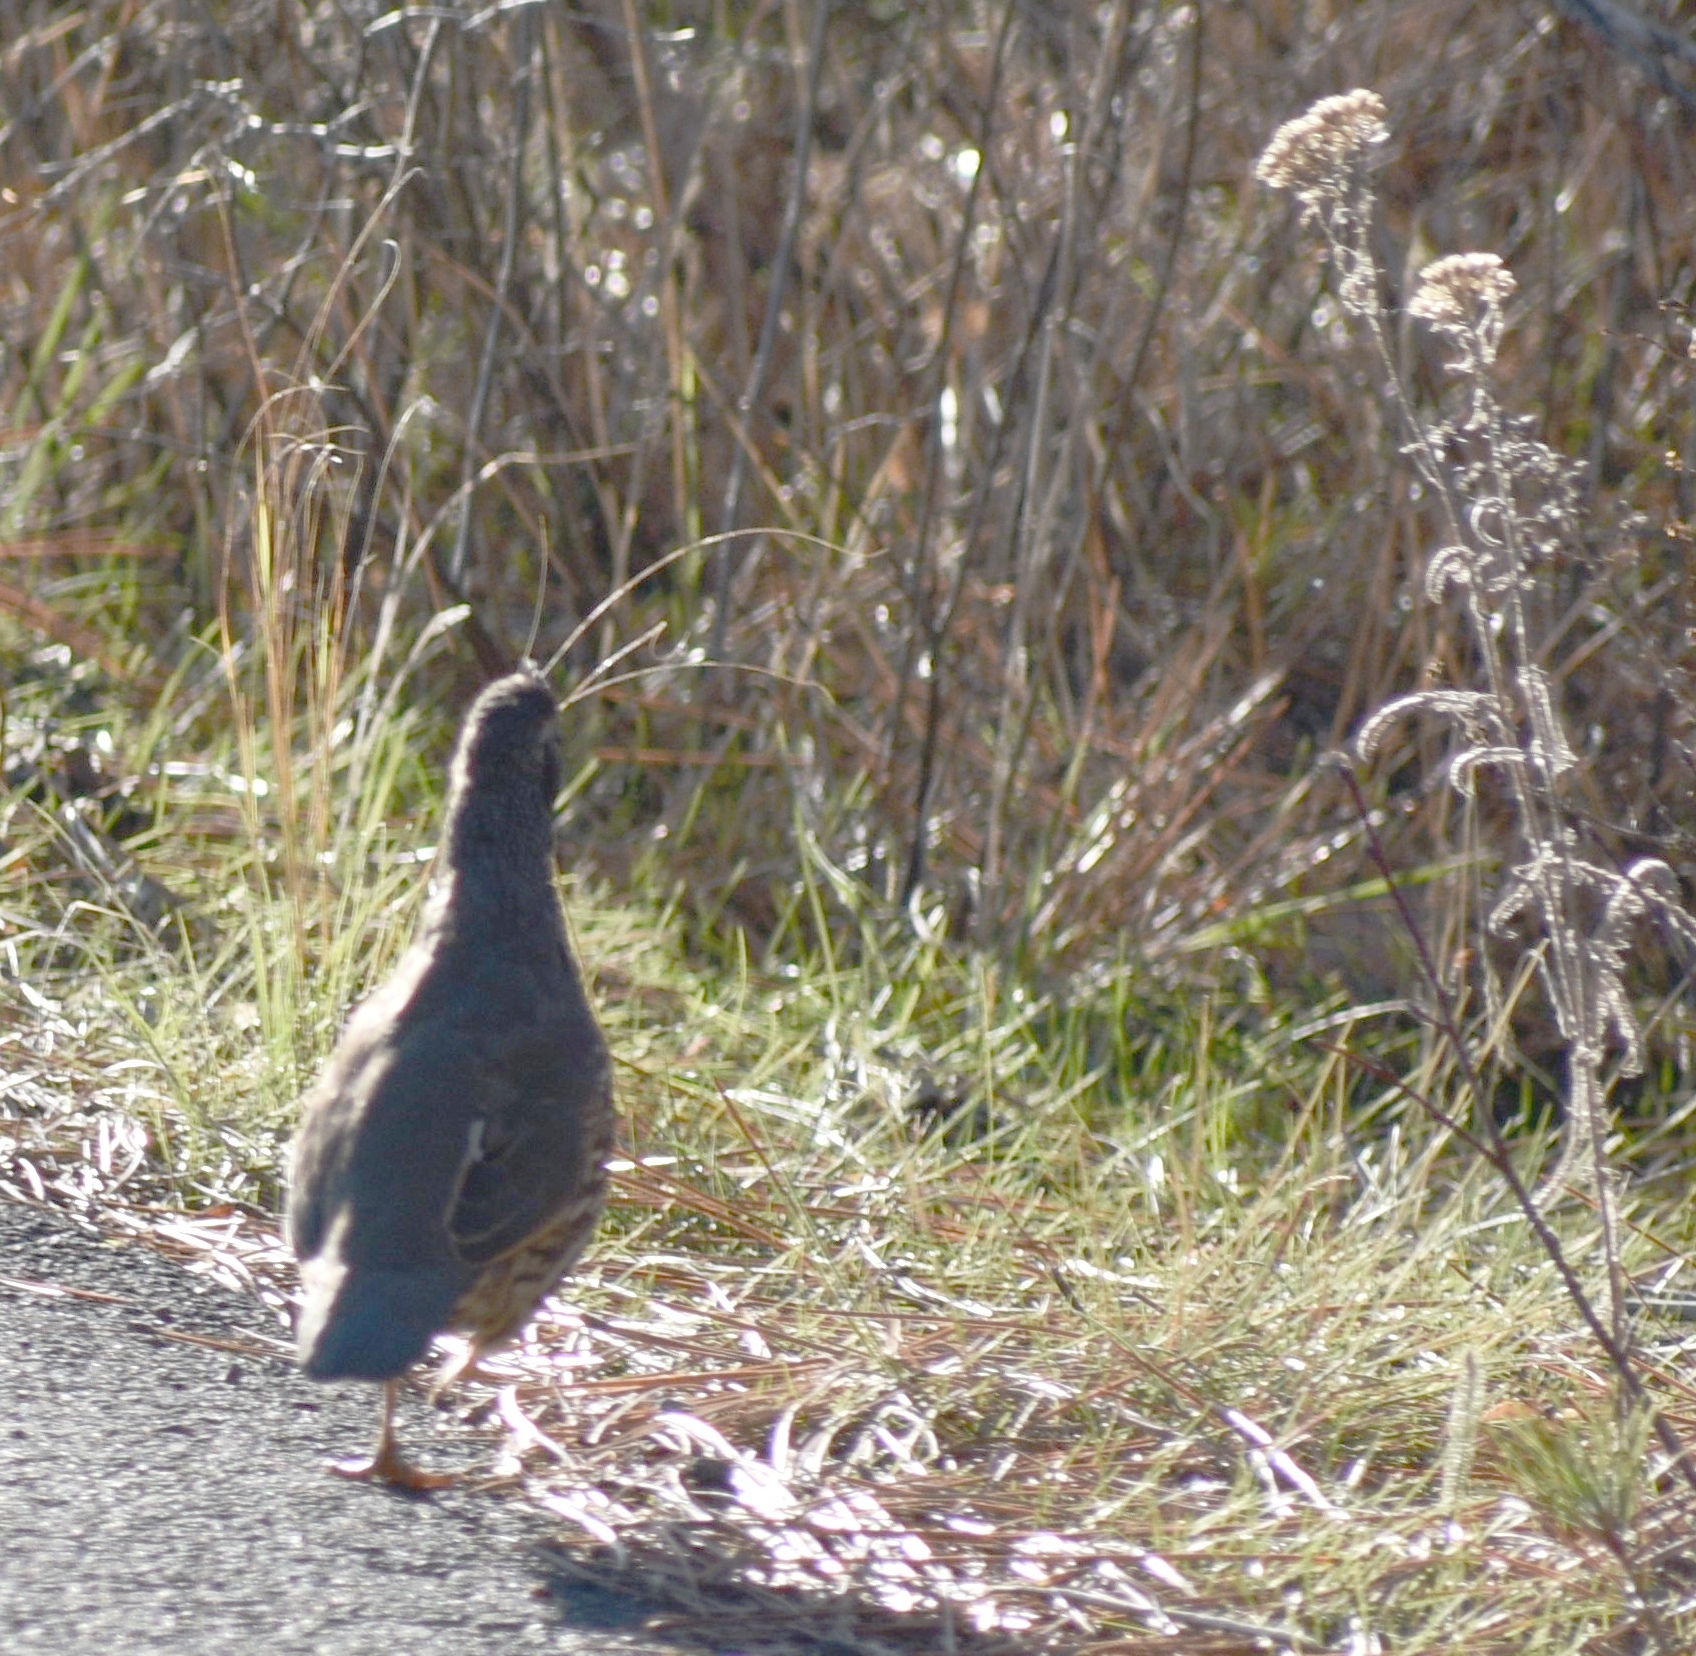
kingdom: Animalia
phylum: Chordata
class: Aves
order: Galliformes
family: Odontophoridae
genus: Callipepla
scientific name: Callipepla californica
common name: California quail
